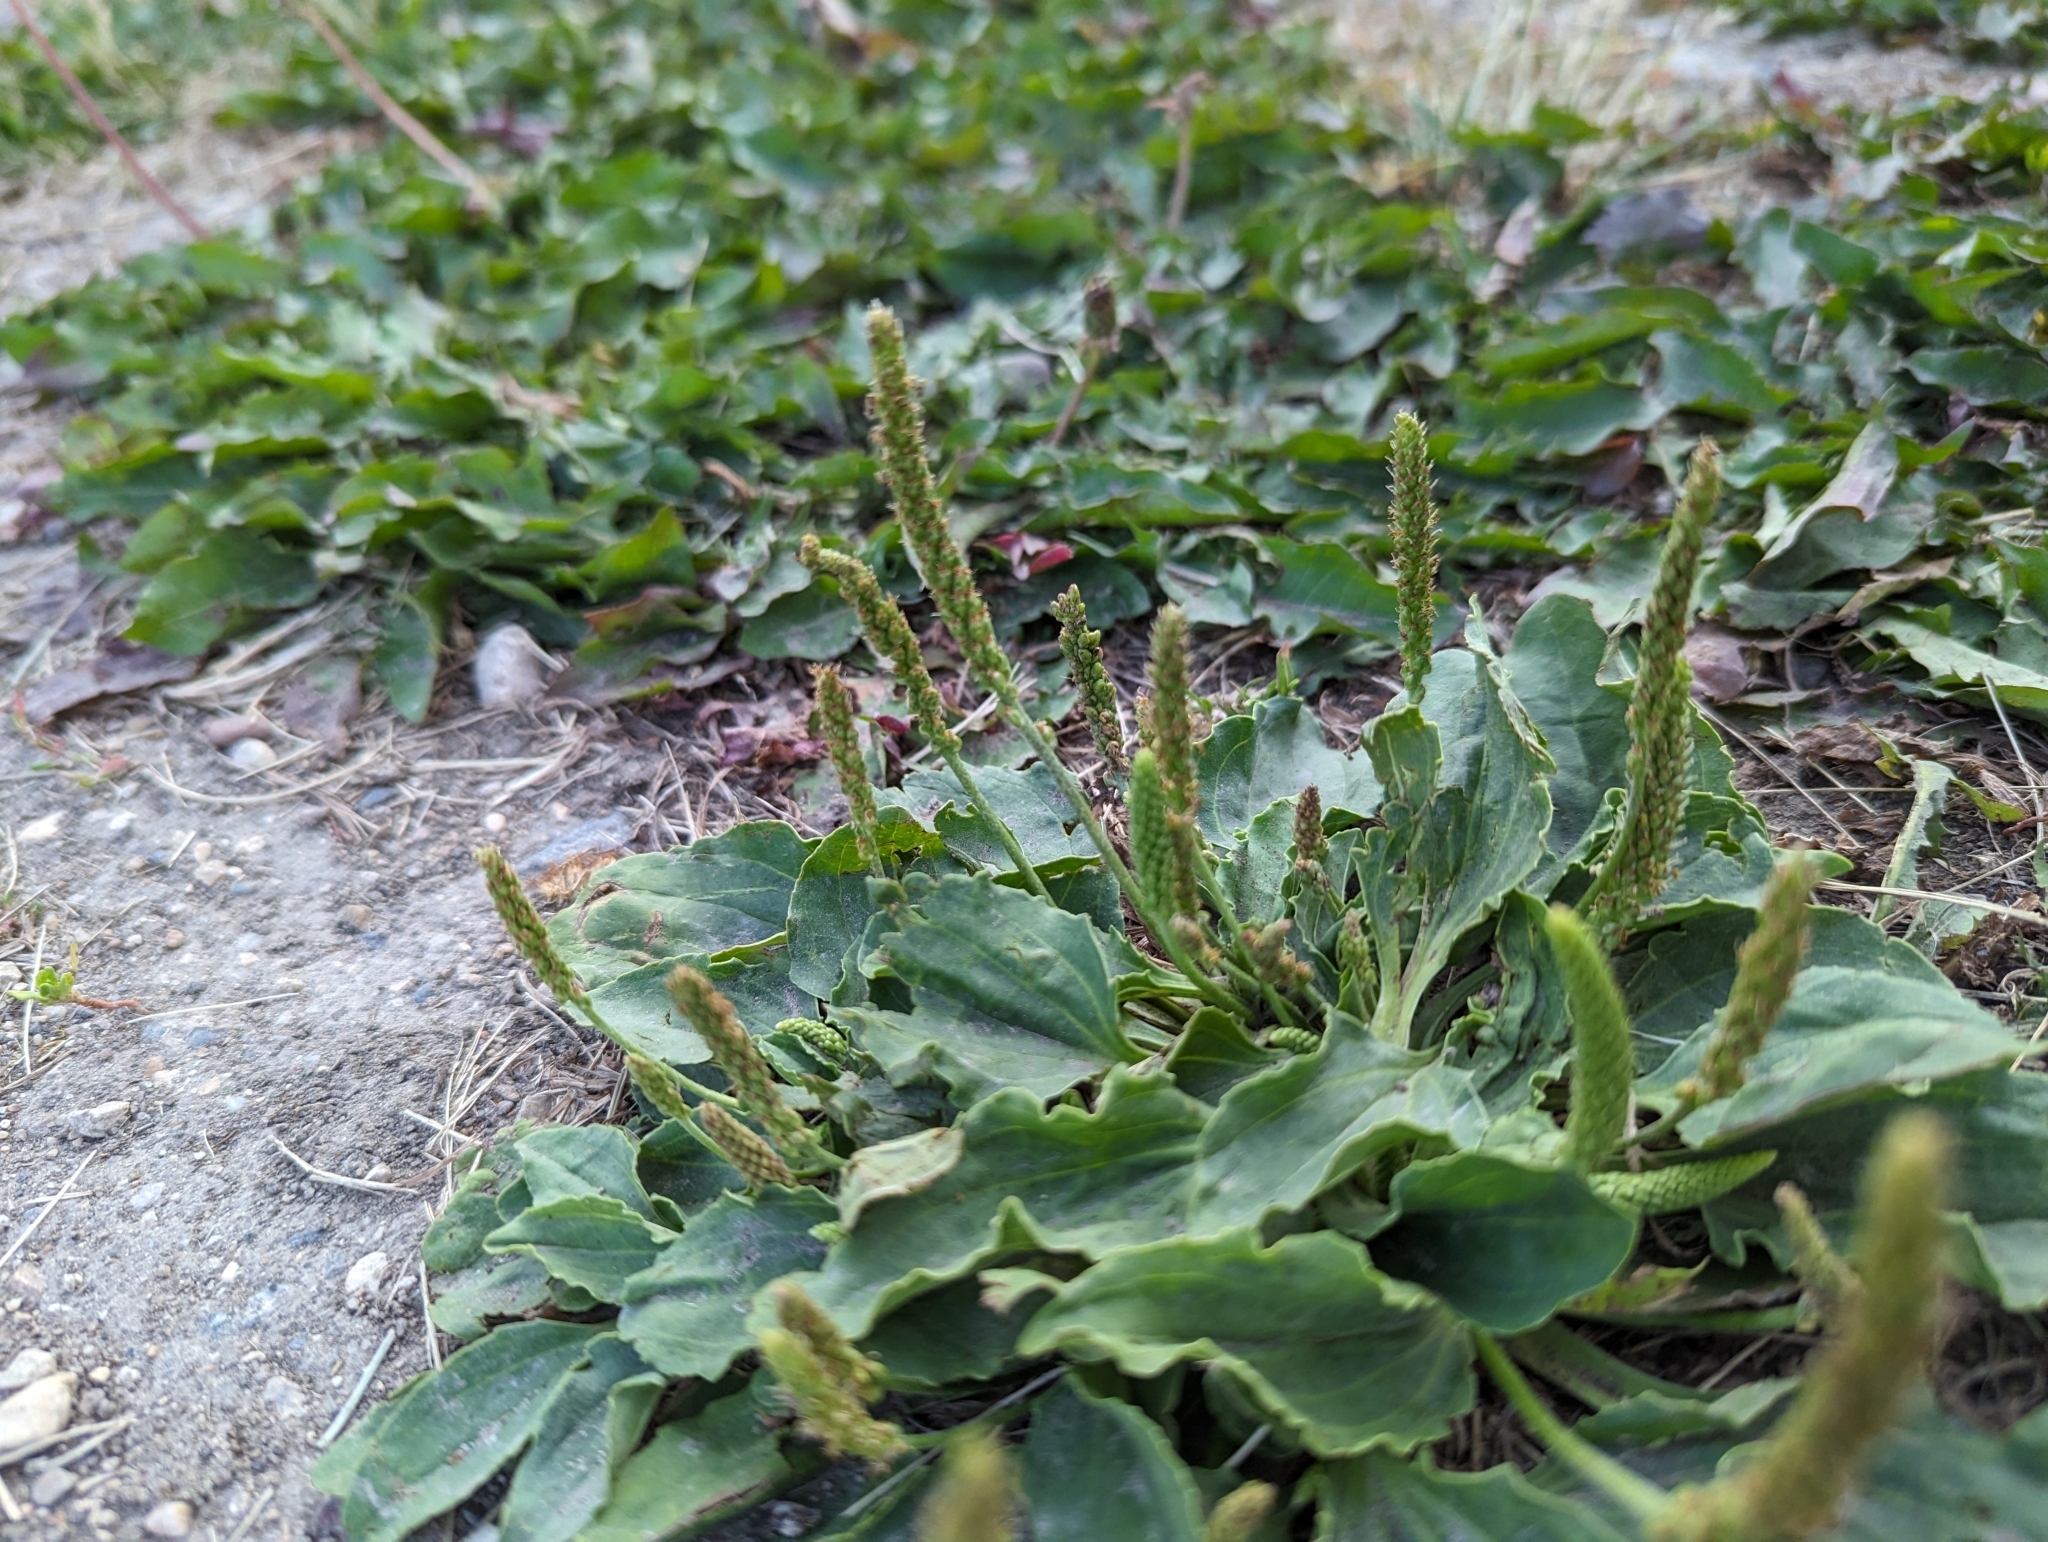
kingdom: Plantae
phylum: Tracheophyta
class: Magnoliopsida
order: Lamiales
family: Plantaginaceae
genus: Plantago
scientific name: Plantago major
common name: Common plantain
